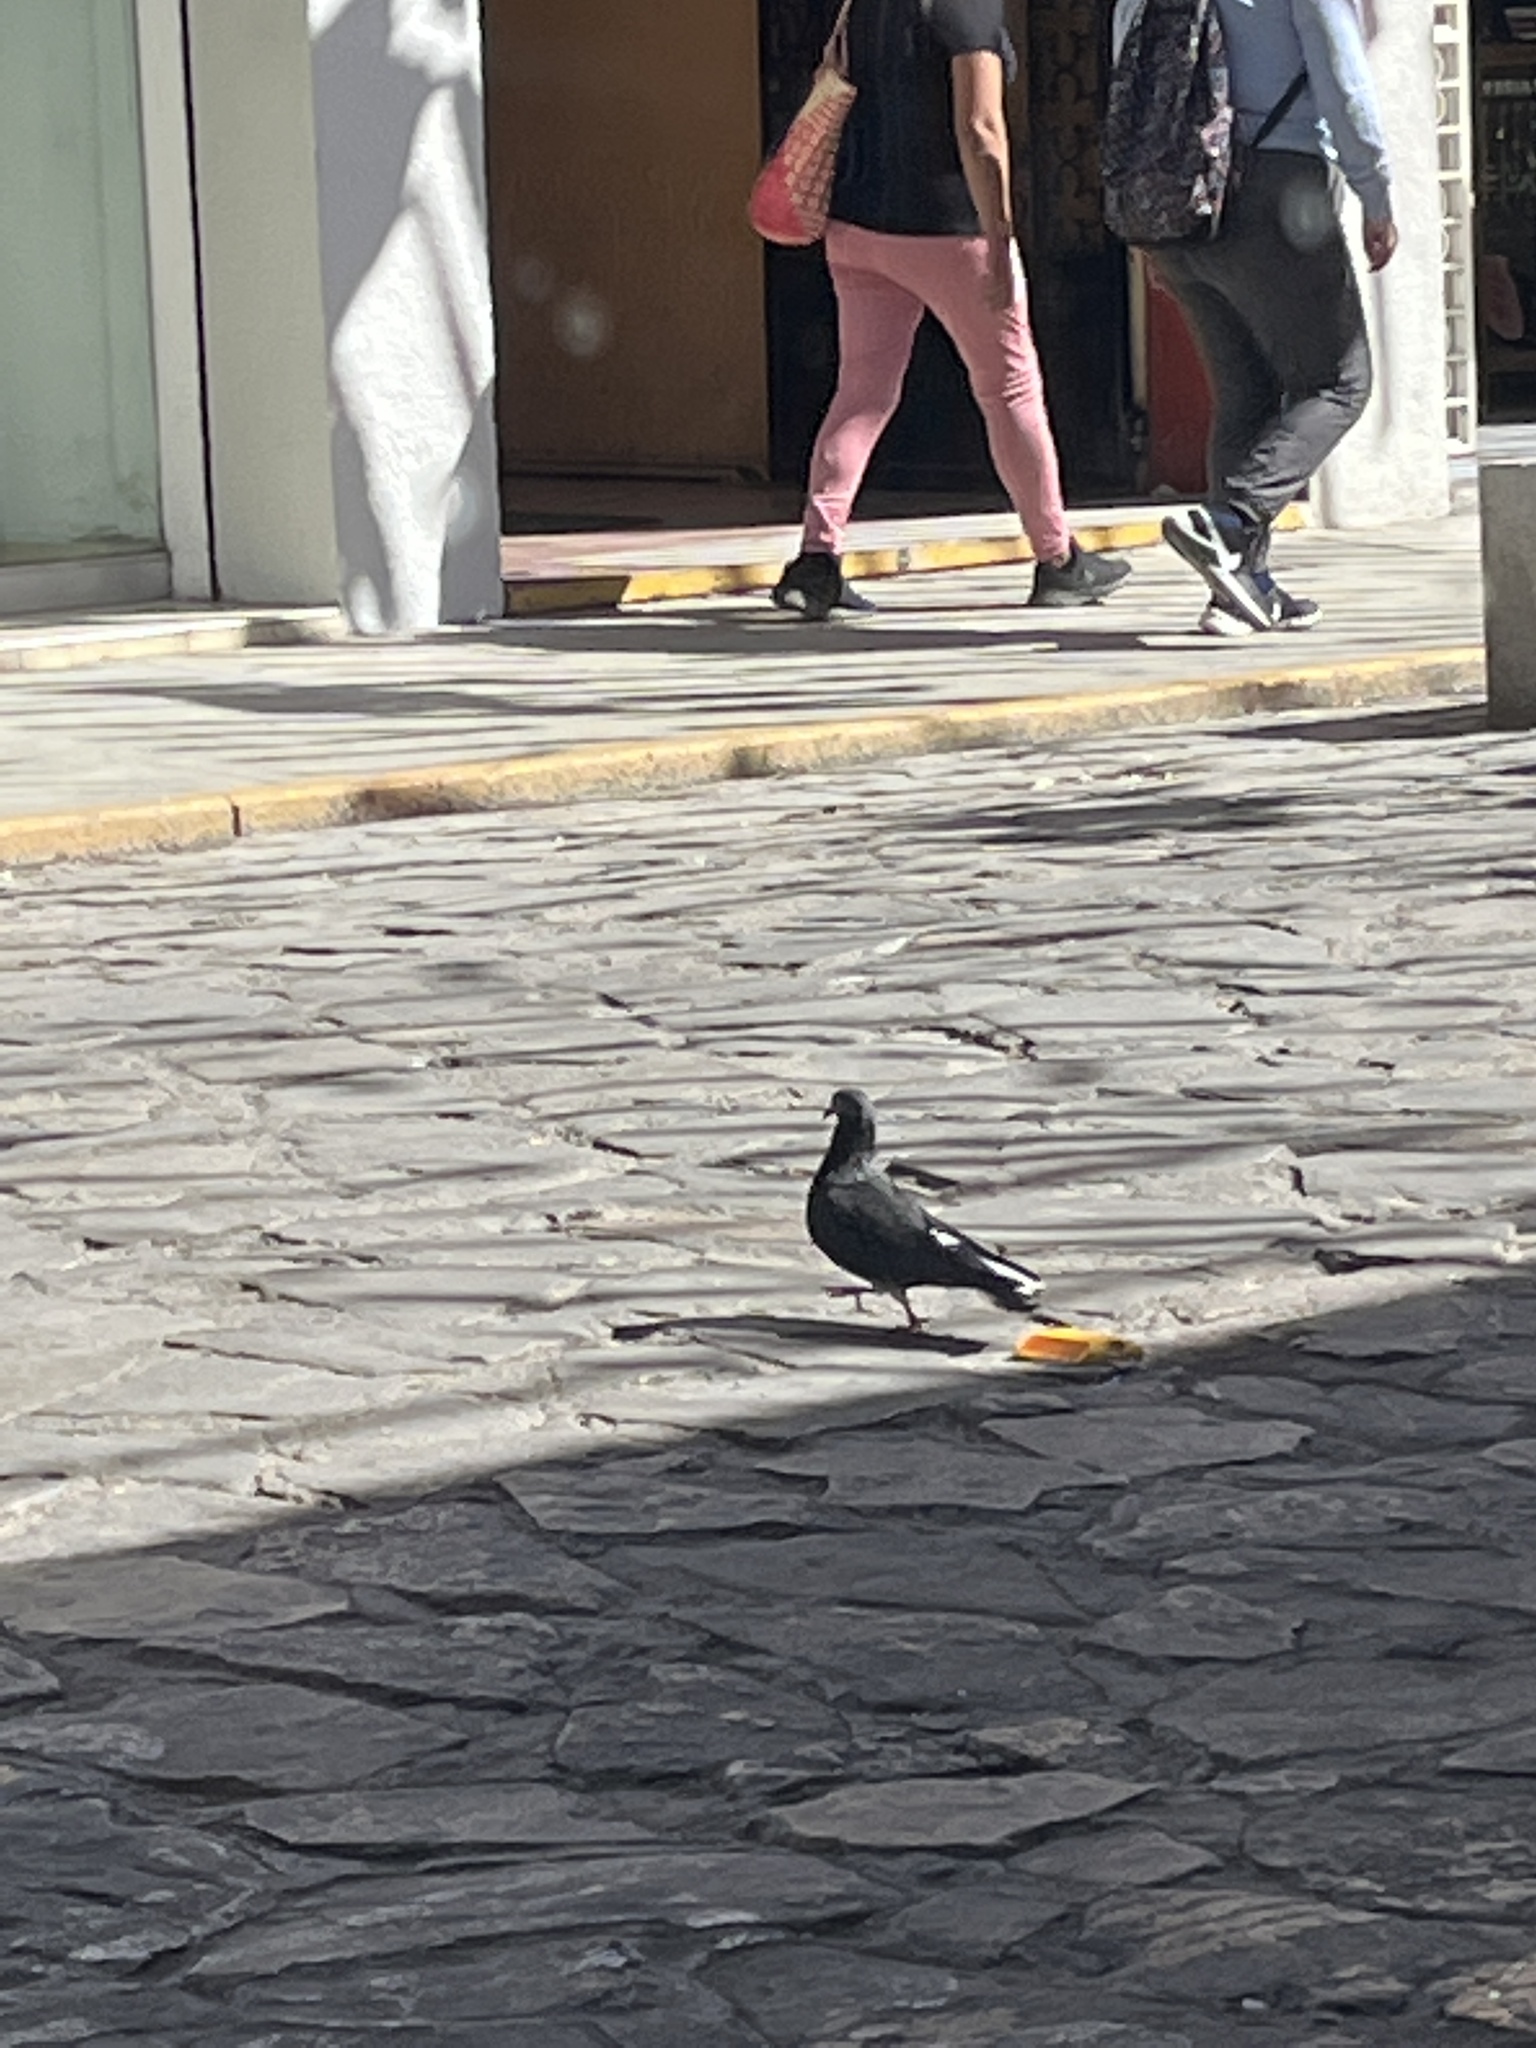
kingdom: Animalia
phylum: Chordata
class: Aves
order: Columbiformes
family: Columbidae
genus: Columba
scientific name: Columba livia
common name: Rock pigeon
